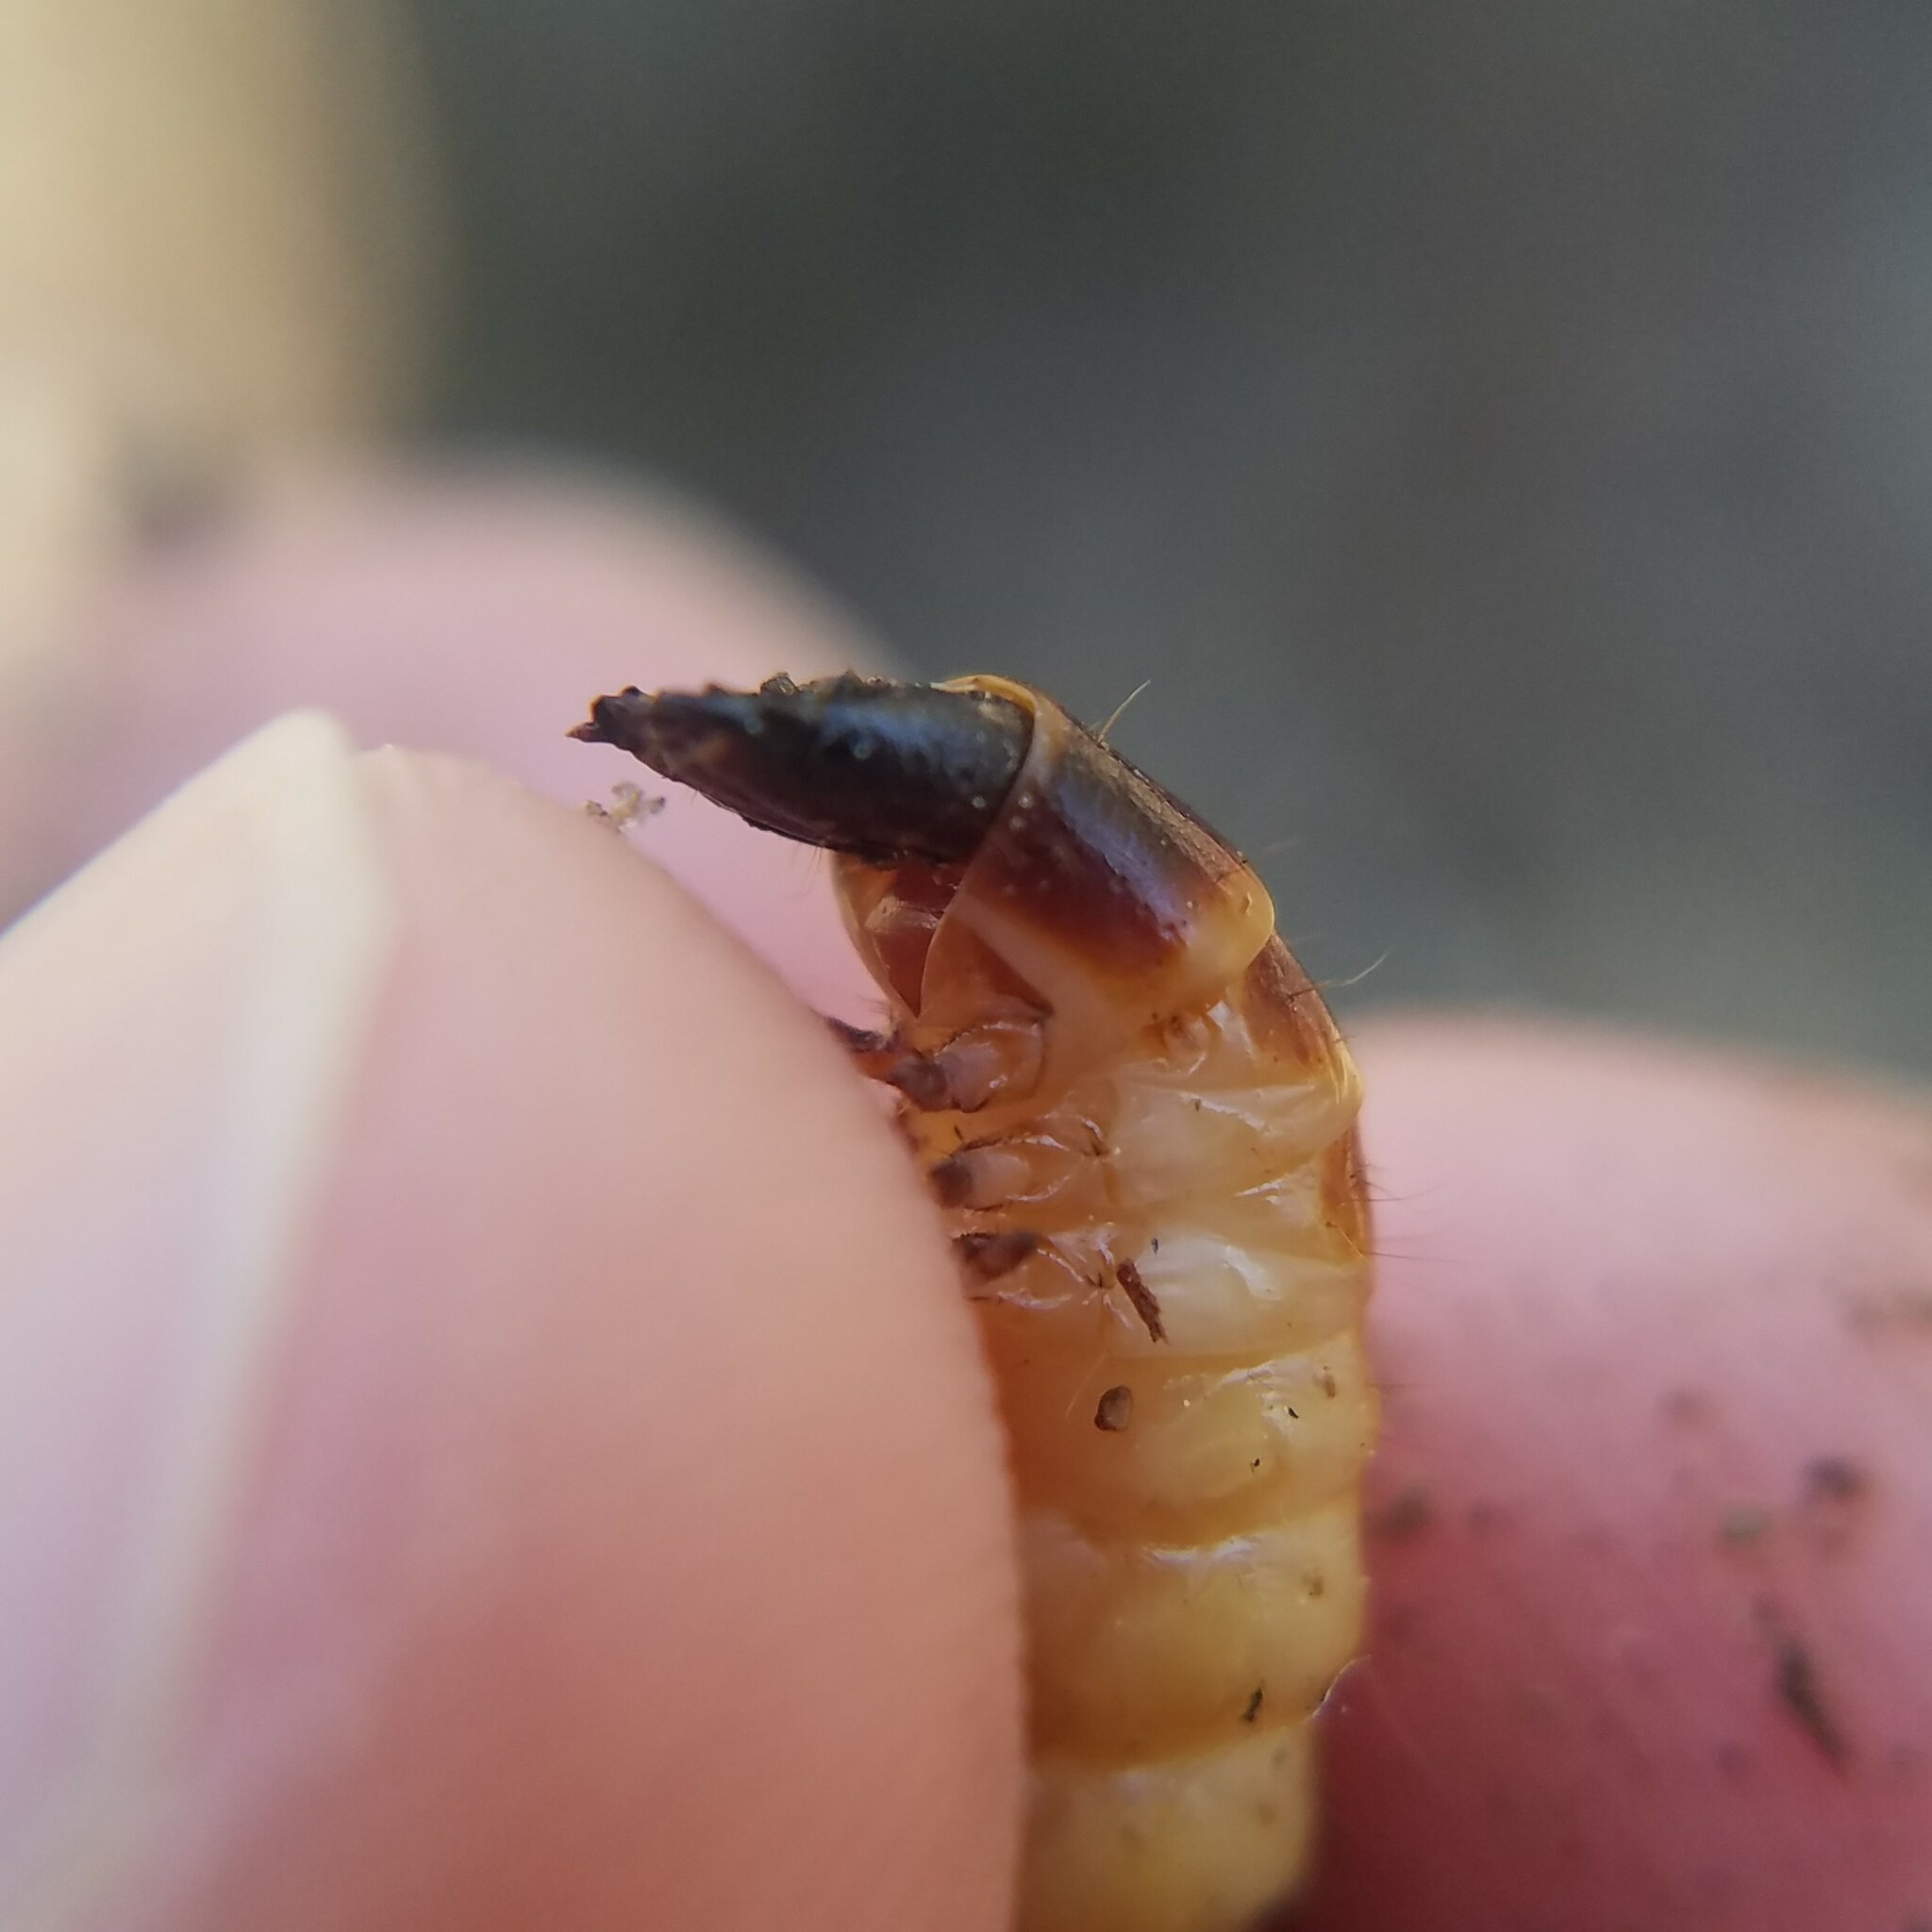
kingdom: Animalia
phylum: Arthropoda
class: Insecta
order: Coleoptera
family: Elateridae
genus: Alaus
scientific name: Alaus myops
